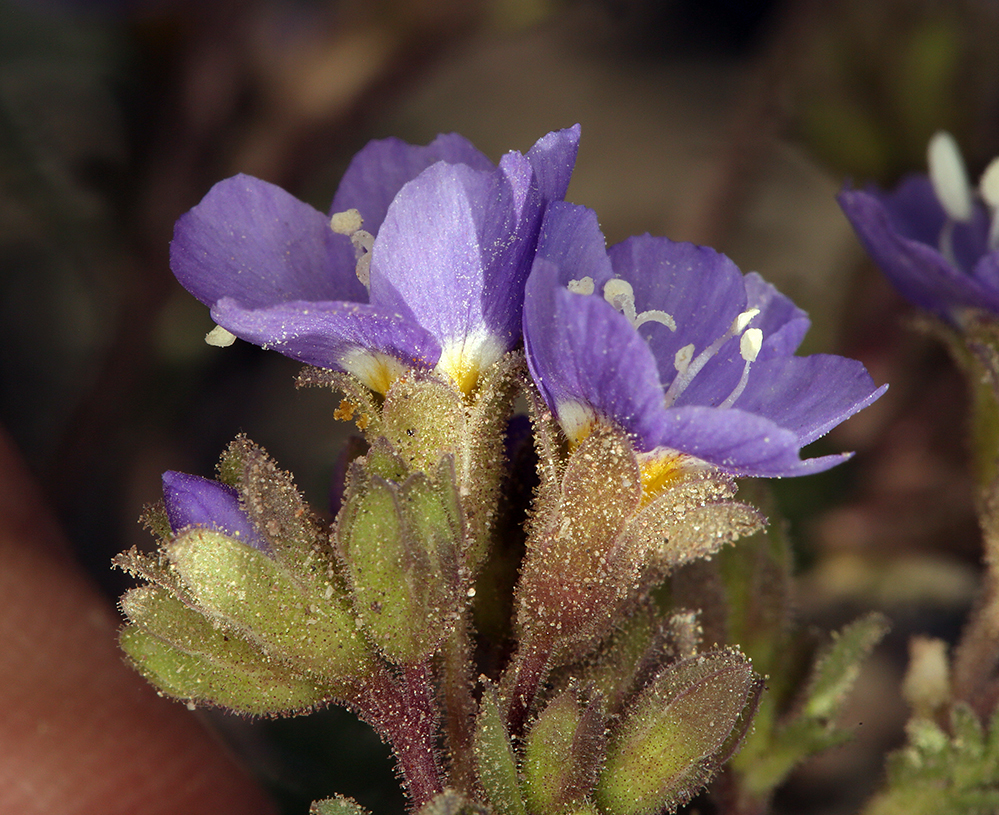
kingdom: Plantae
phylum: Tracheophyta
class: Magnoliopsida
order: Ericales
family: Polemoniaceae
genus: Polemonium
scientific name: Polemonium pulcherrimum
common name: Short jacob's-ladder
